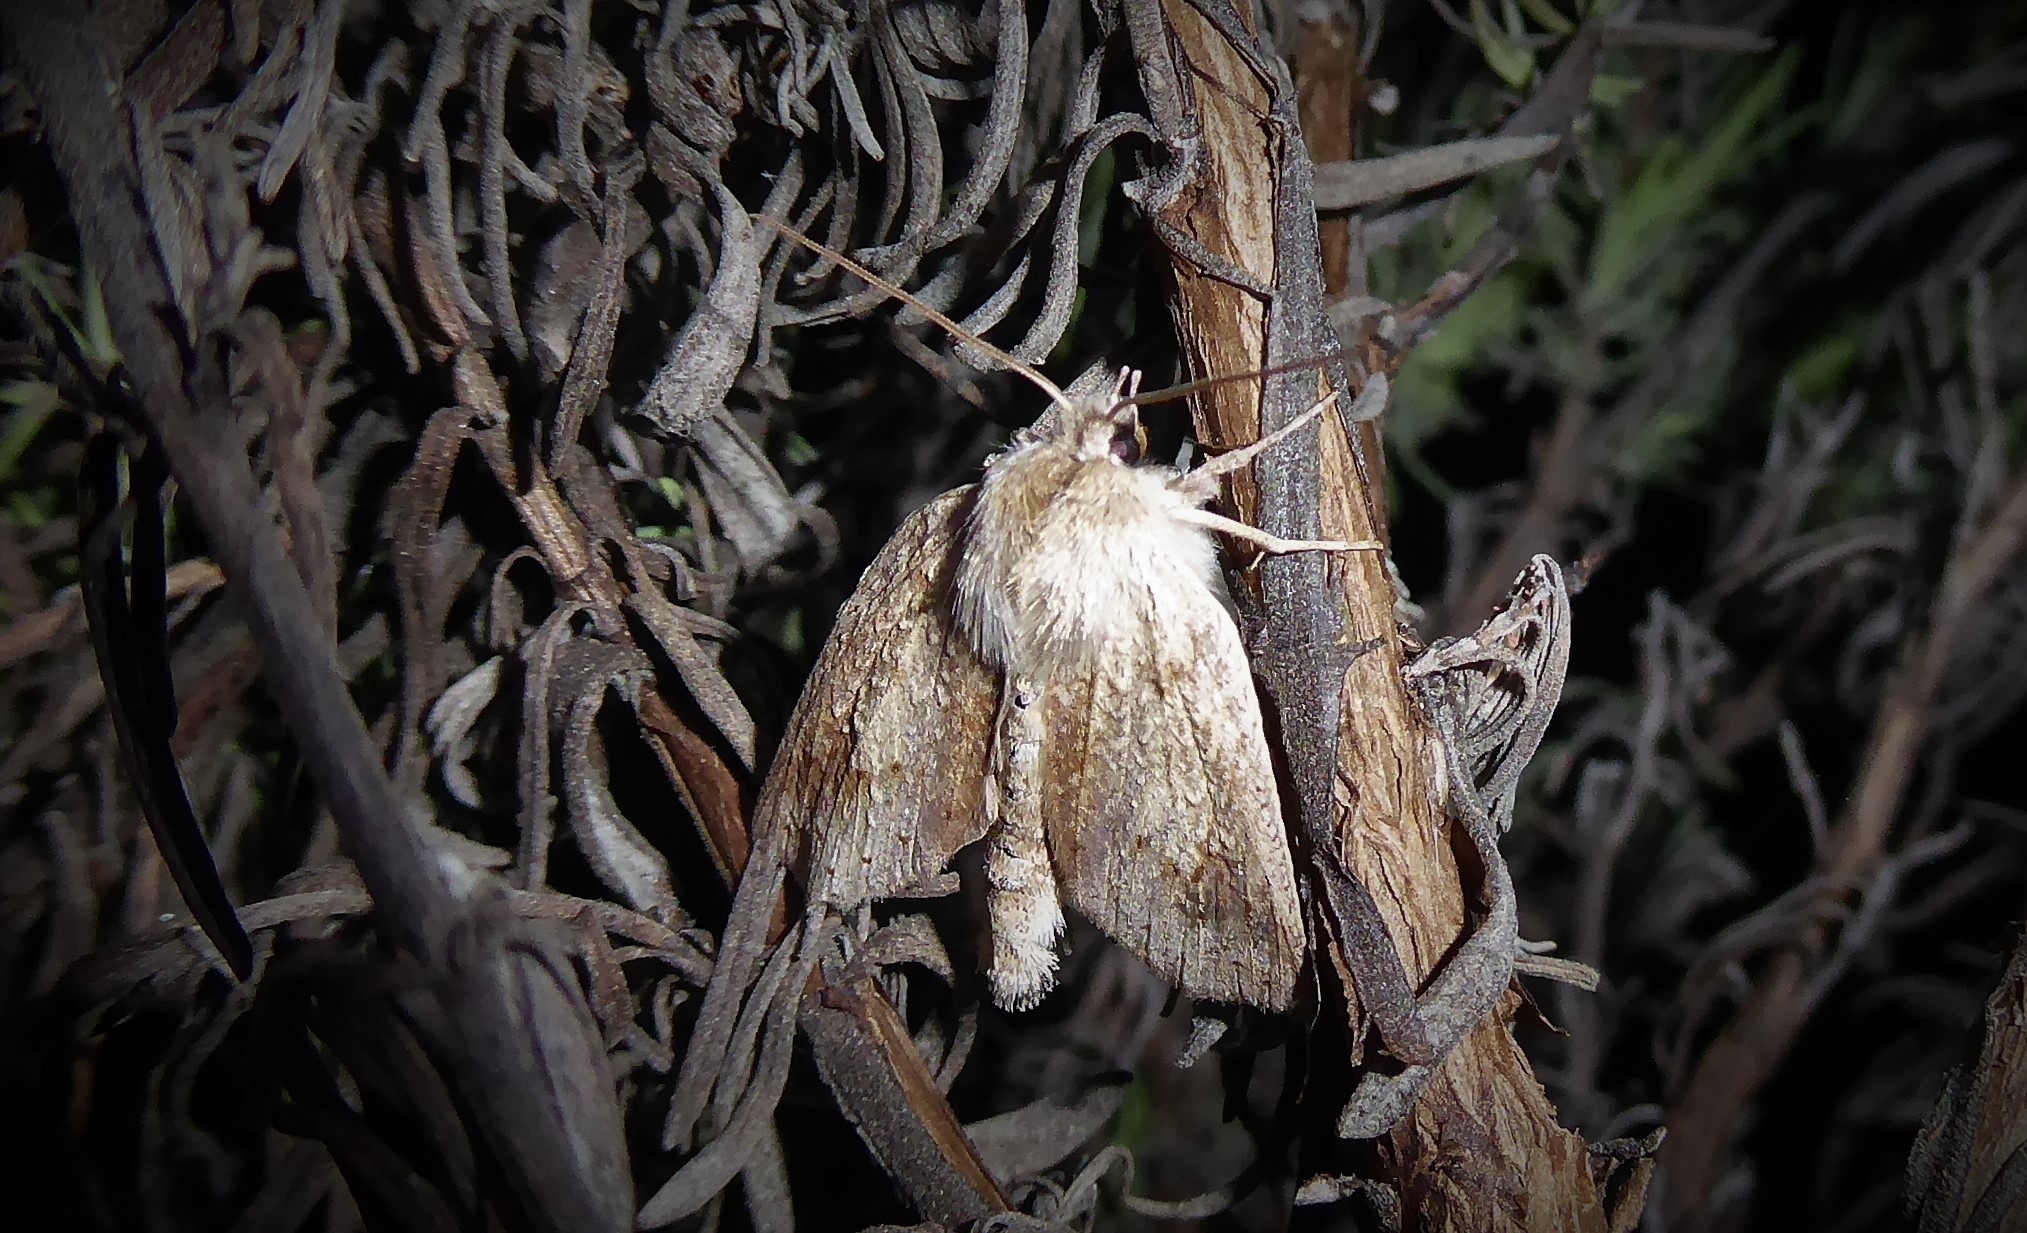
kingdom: Animalia
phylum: Arthropoda
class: Insecta
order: Lepidoptera
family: Geometridae
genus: Declana
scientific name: Declana leptomera
